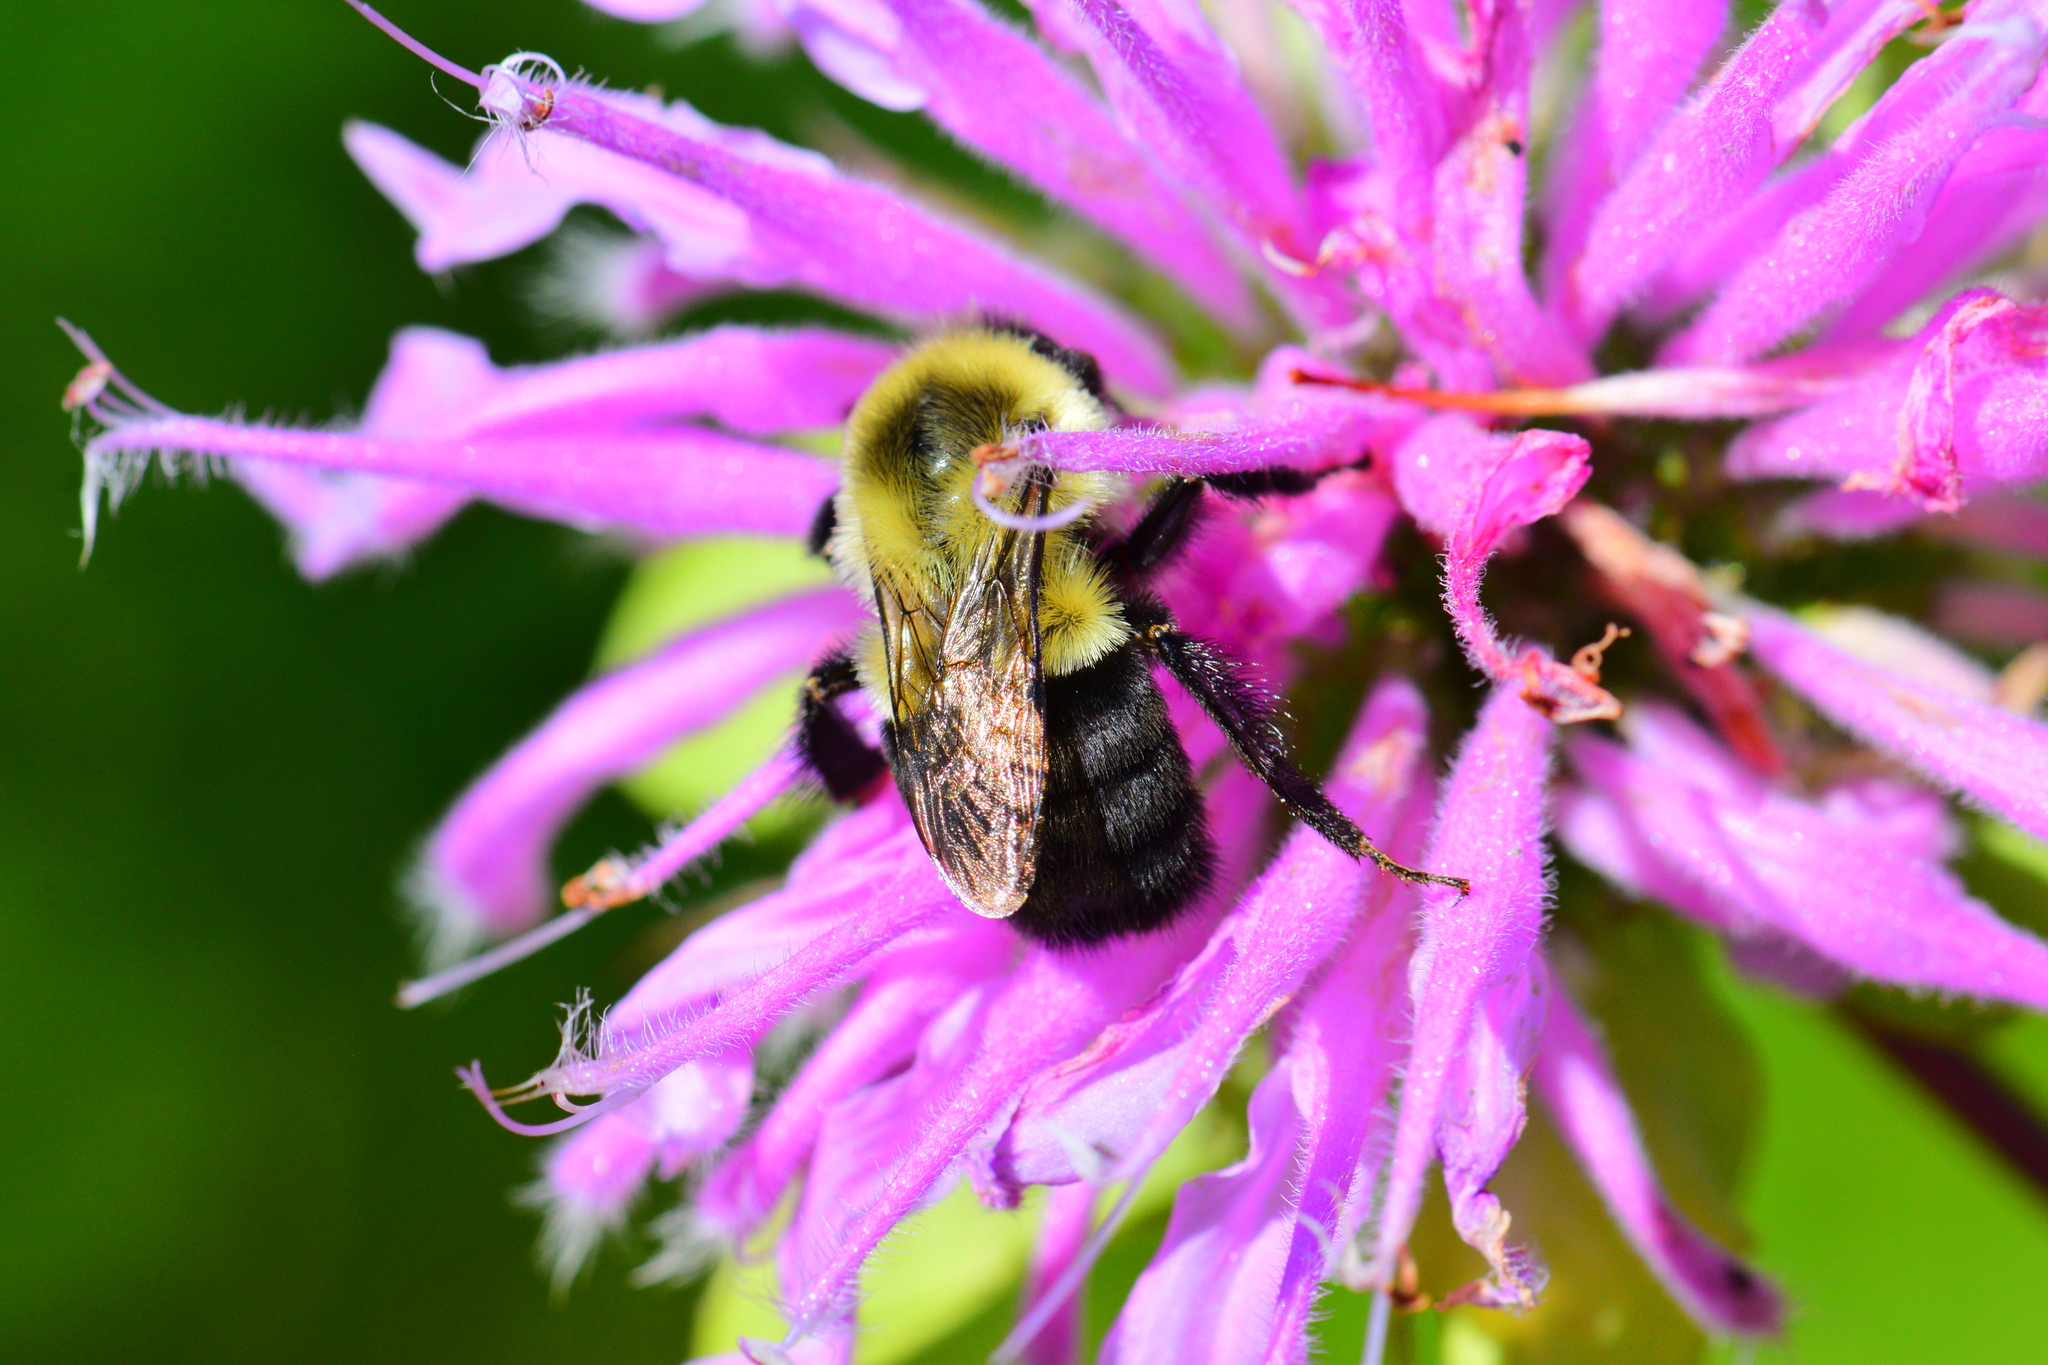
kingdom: Animalia
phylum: Arthropoda
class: Insecta
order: Hymenoptera
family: Apidae
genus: Bombus
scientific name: Bombus impatiens
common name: Common eastern bumble bee
